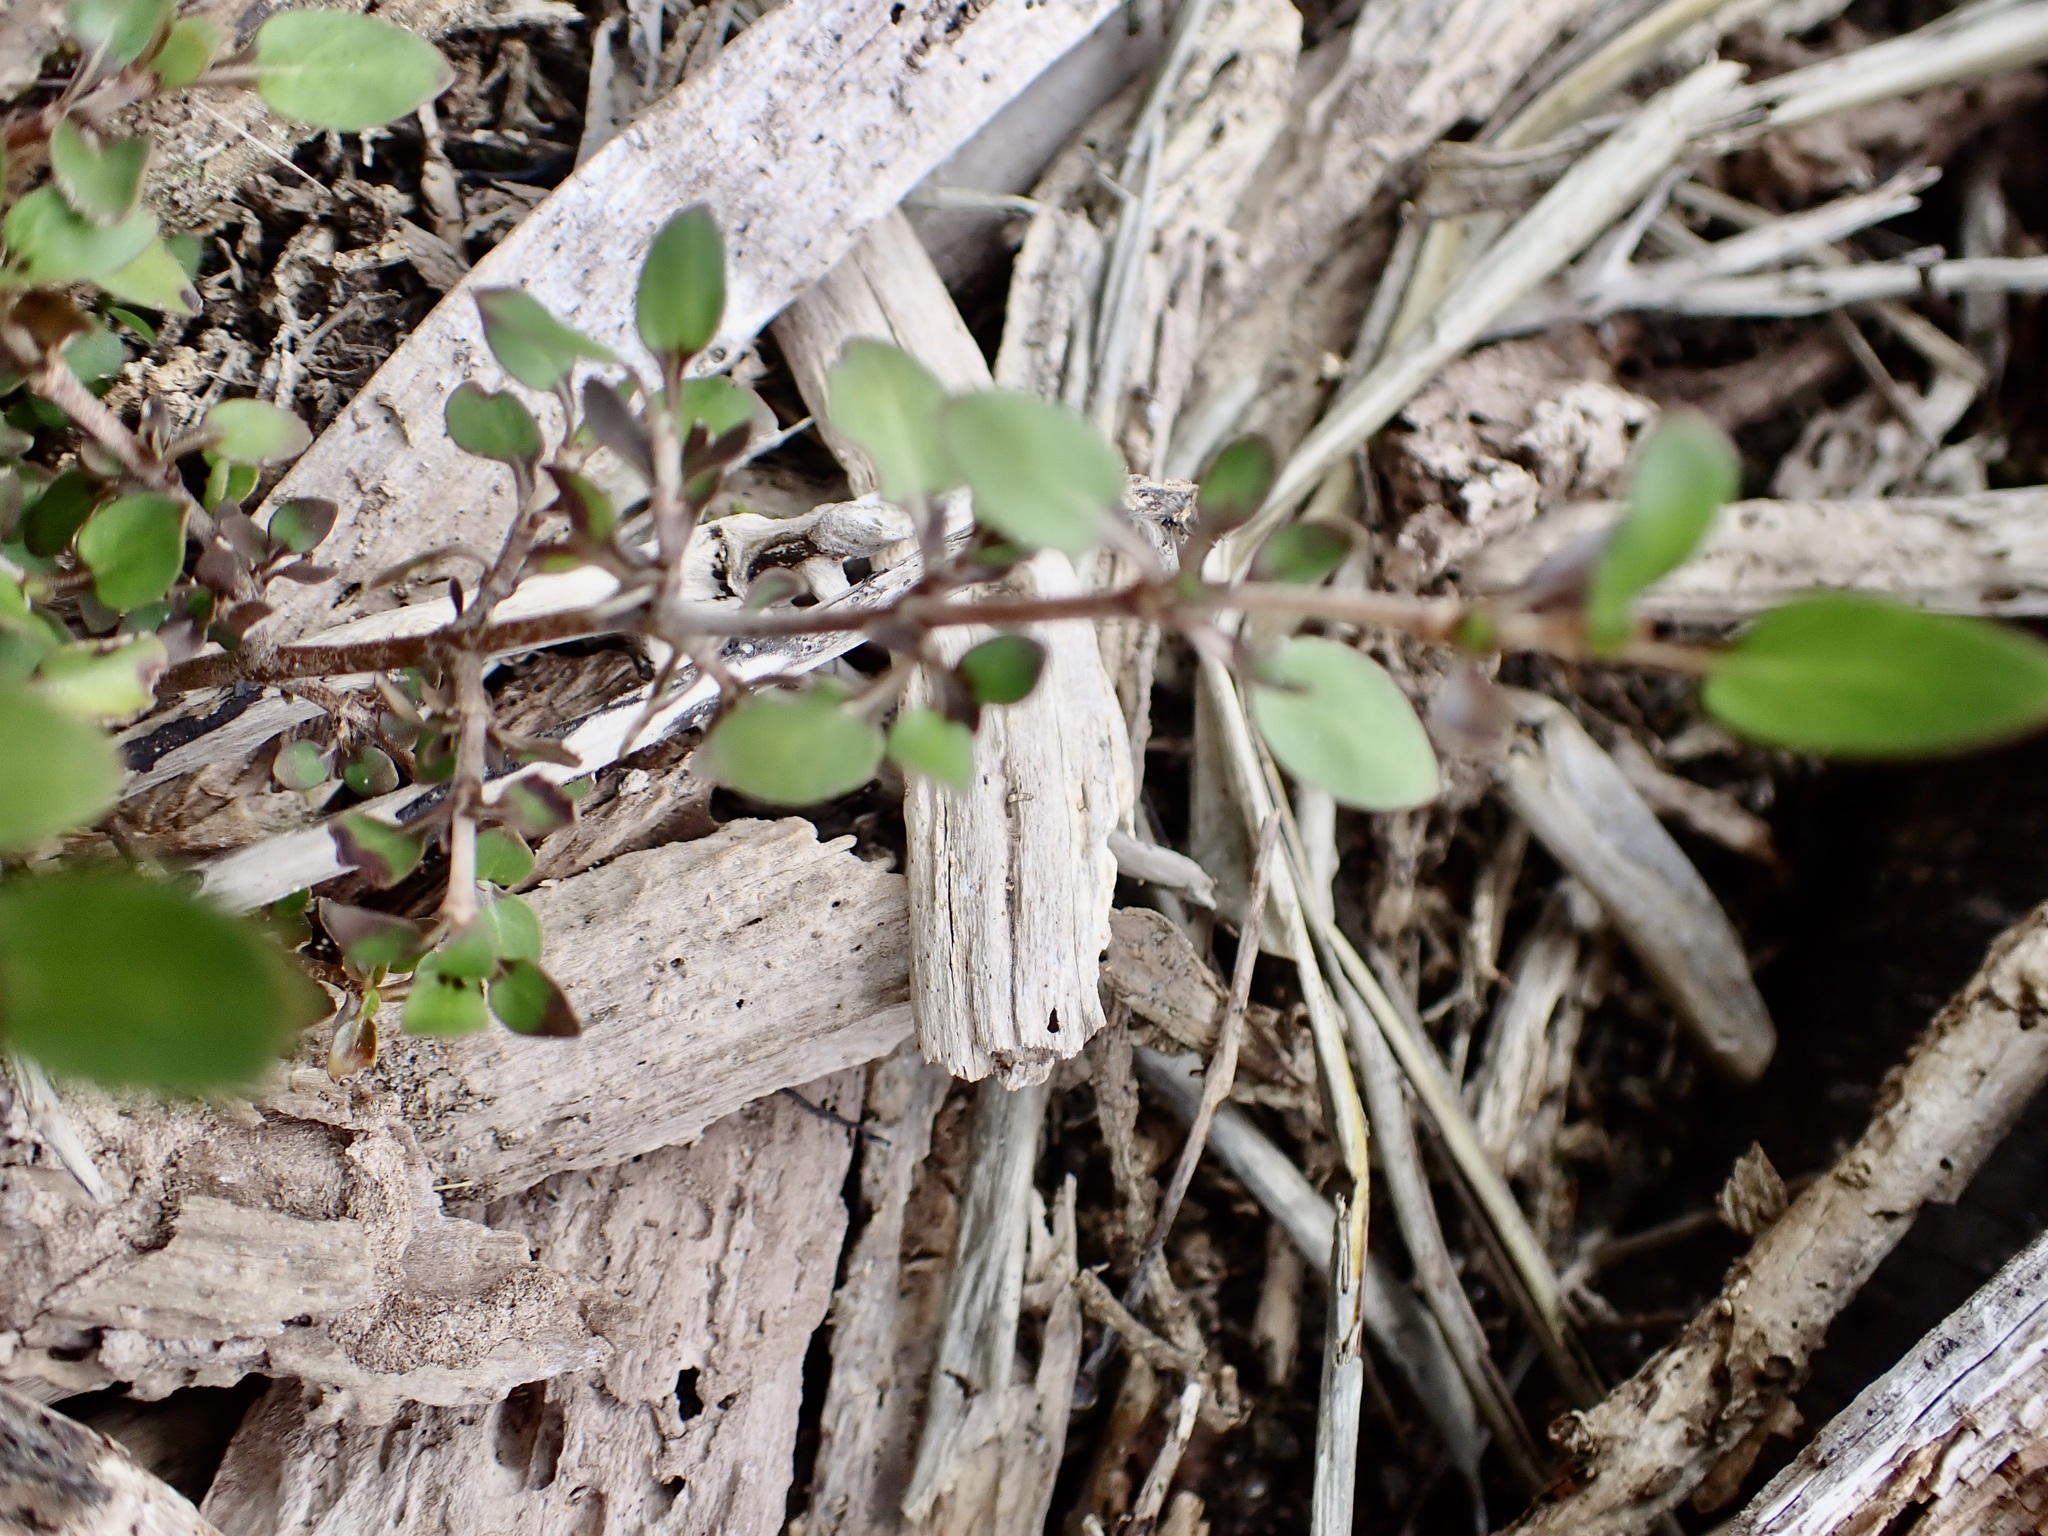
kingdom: Plantae
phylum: Tracheophyta
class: Magnoliopsida
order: Gentianales
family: Rubiaceae
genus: Coprosma
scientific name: Coprosma propinqua
